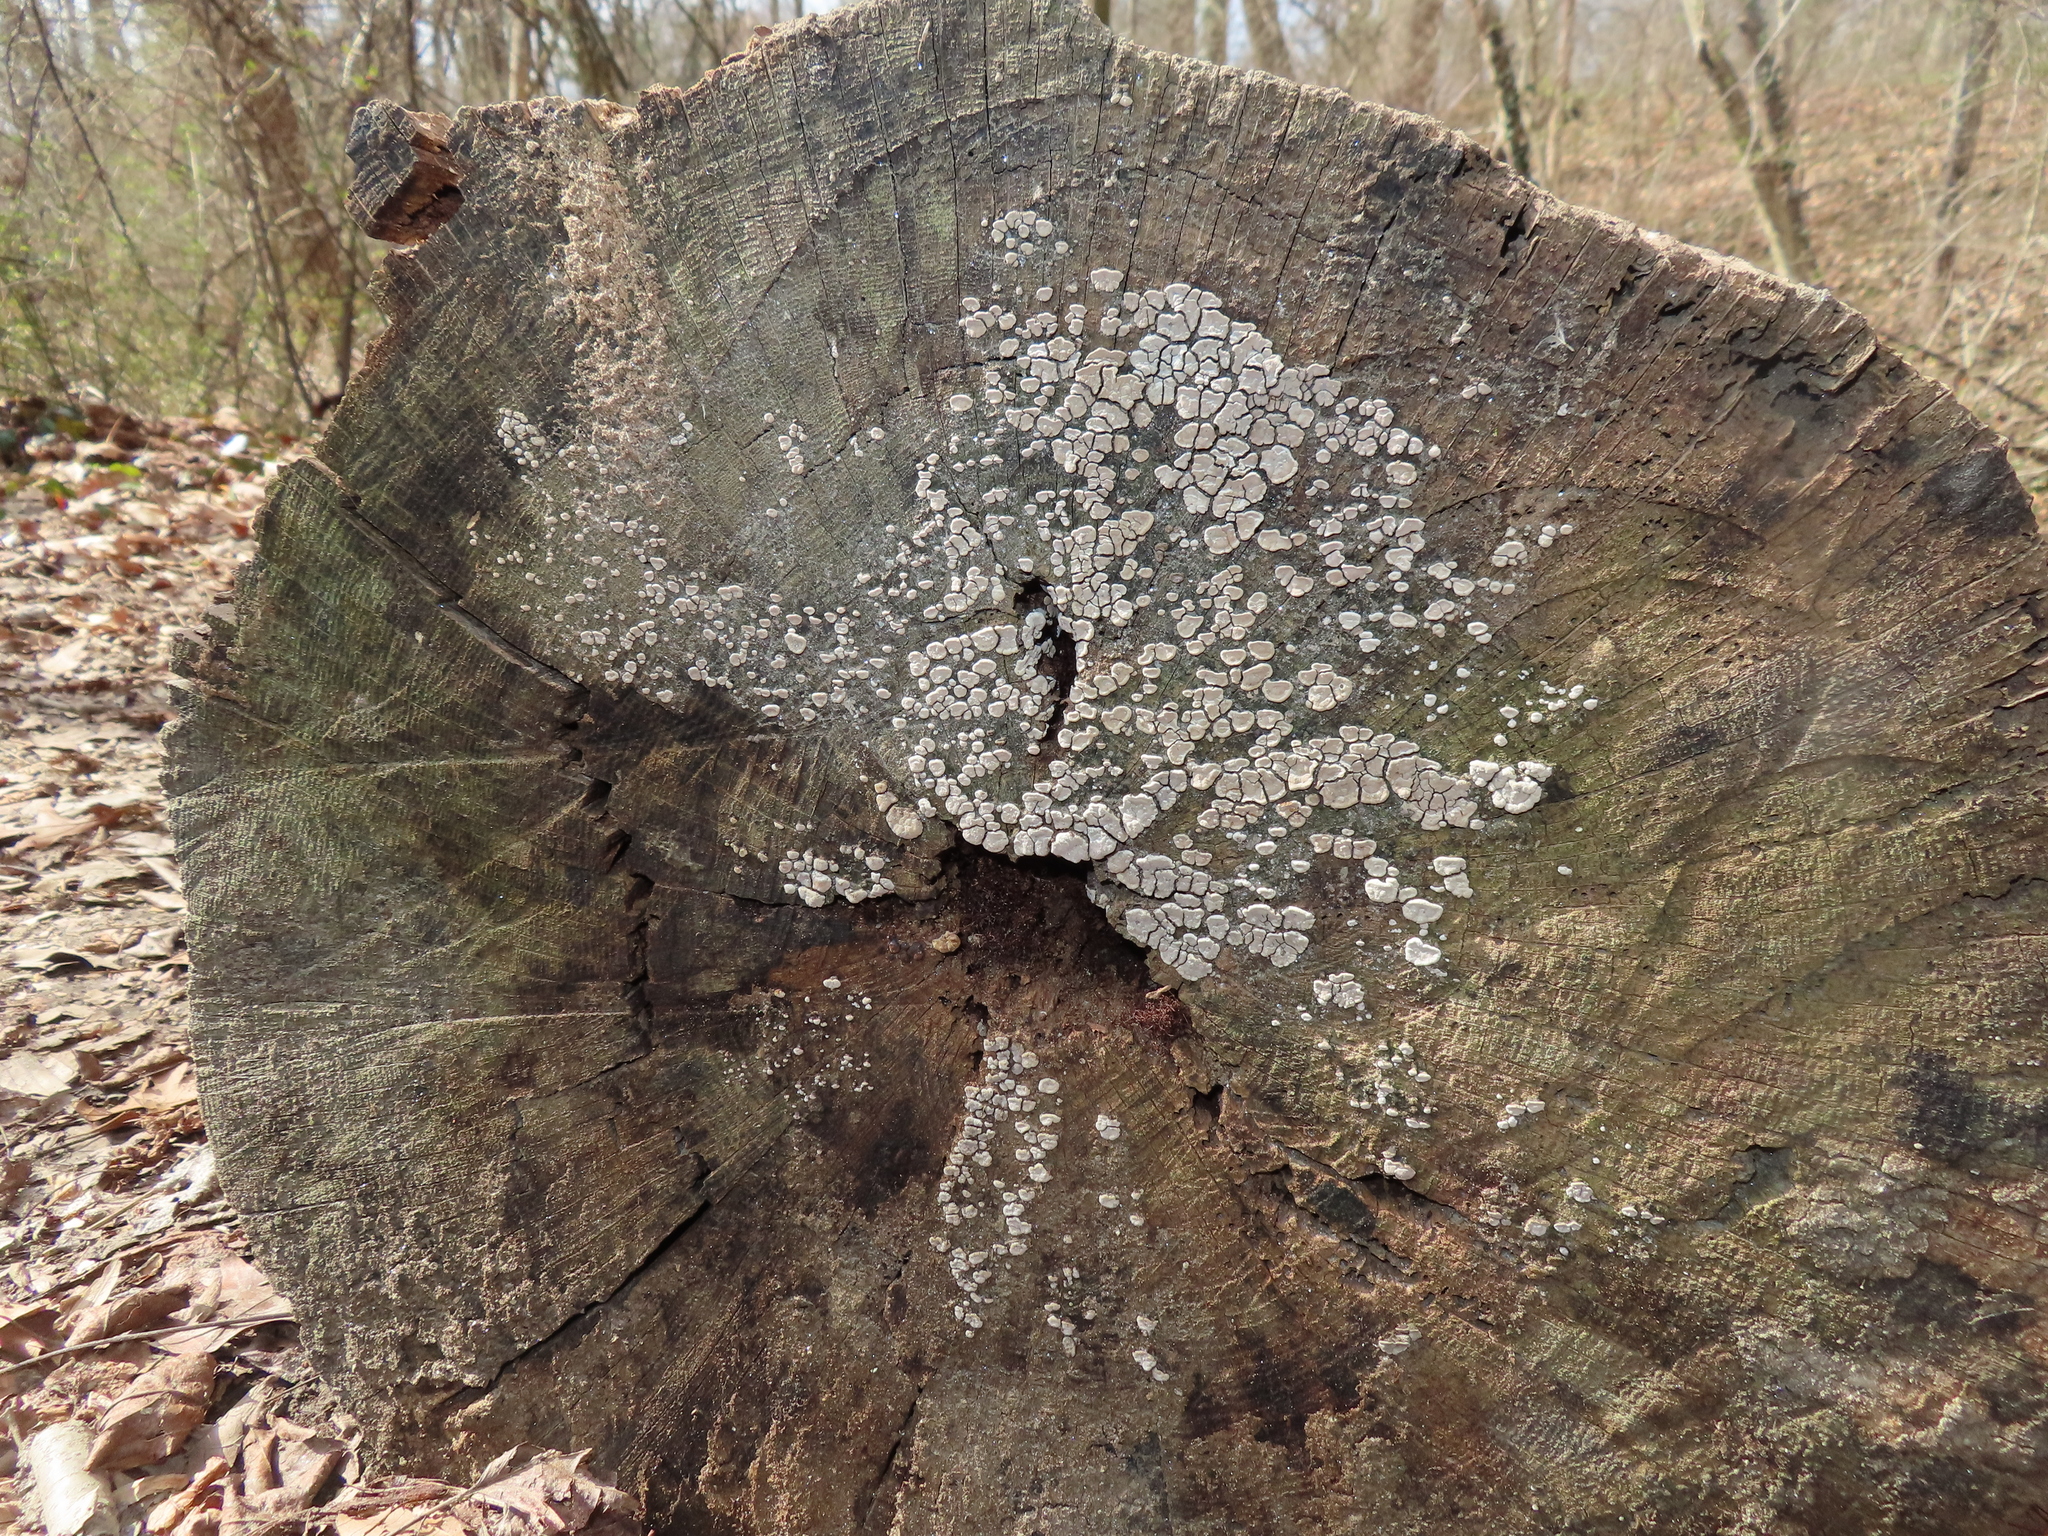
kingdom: Fungi
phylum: Basidiomycota
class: Agaricomycetes
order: Russulales
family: Stereaceae
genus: Xylobolus
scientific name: Xylobolus frustulatus
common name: Ceramic parchment
